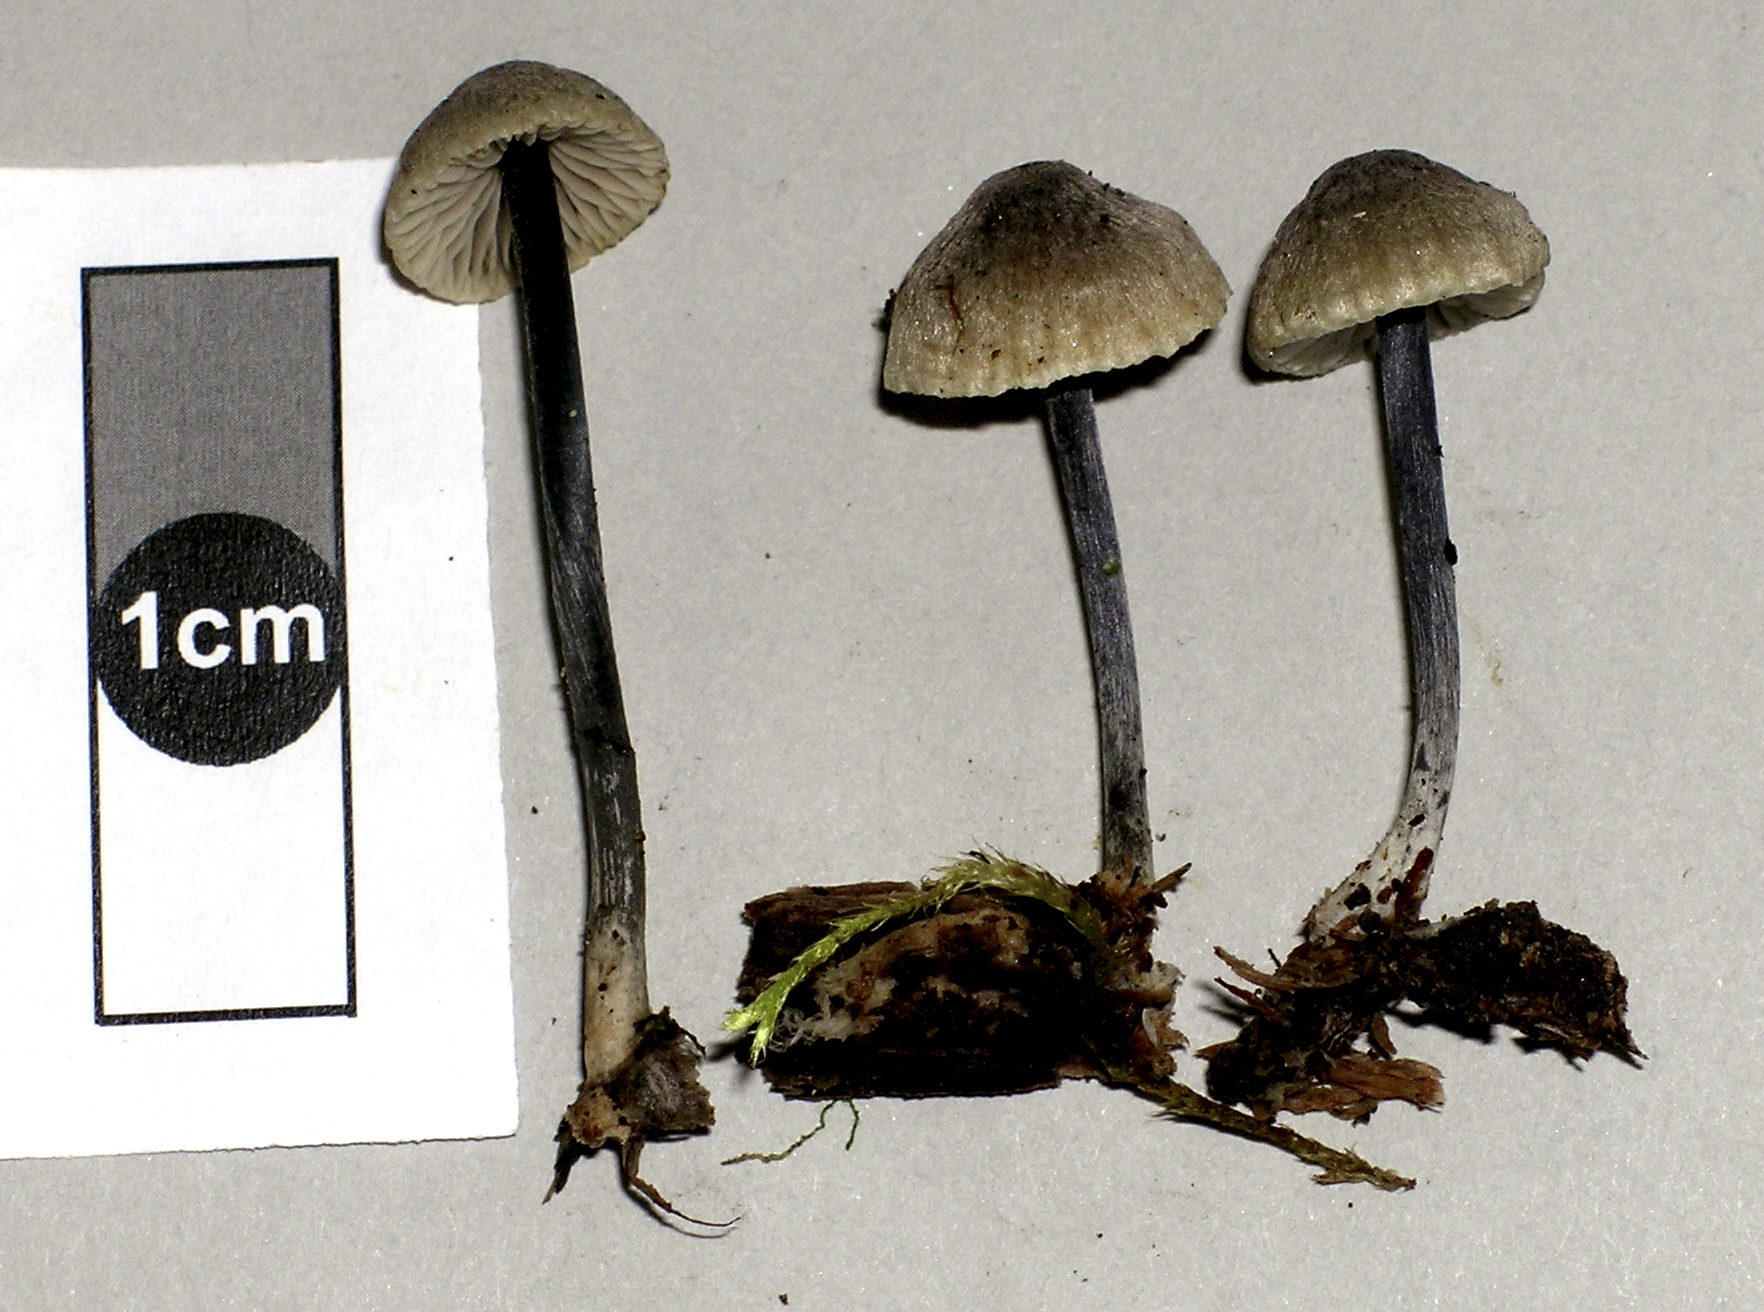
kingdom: Fungi
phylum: Basidiomycota
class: Agaricomycetes
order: Agaricales
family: Entolomataceae
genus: Entoloma
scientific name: Entoloma uliginicola
